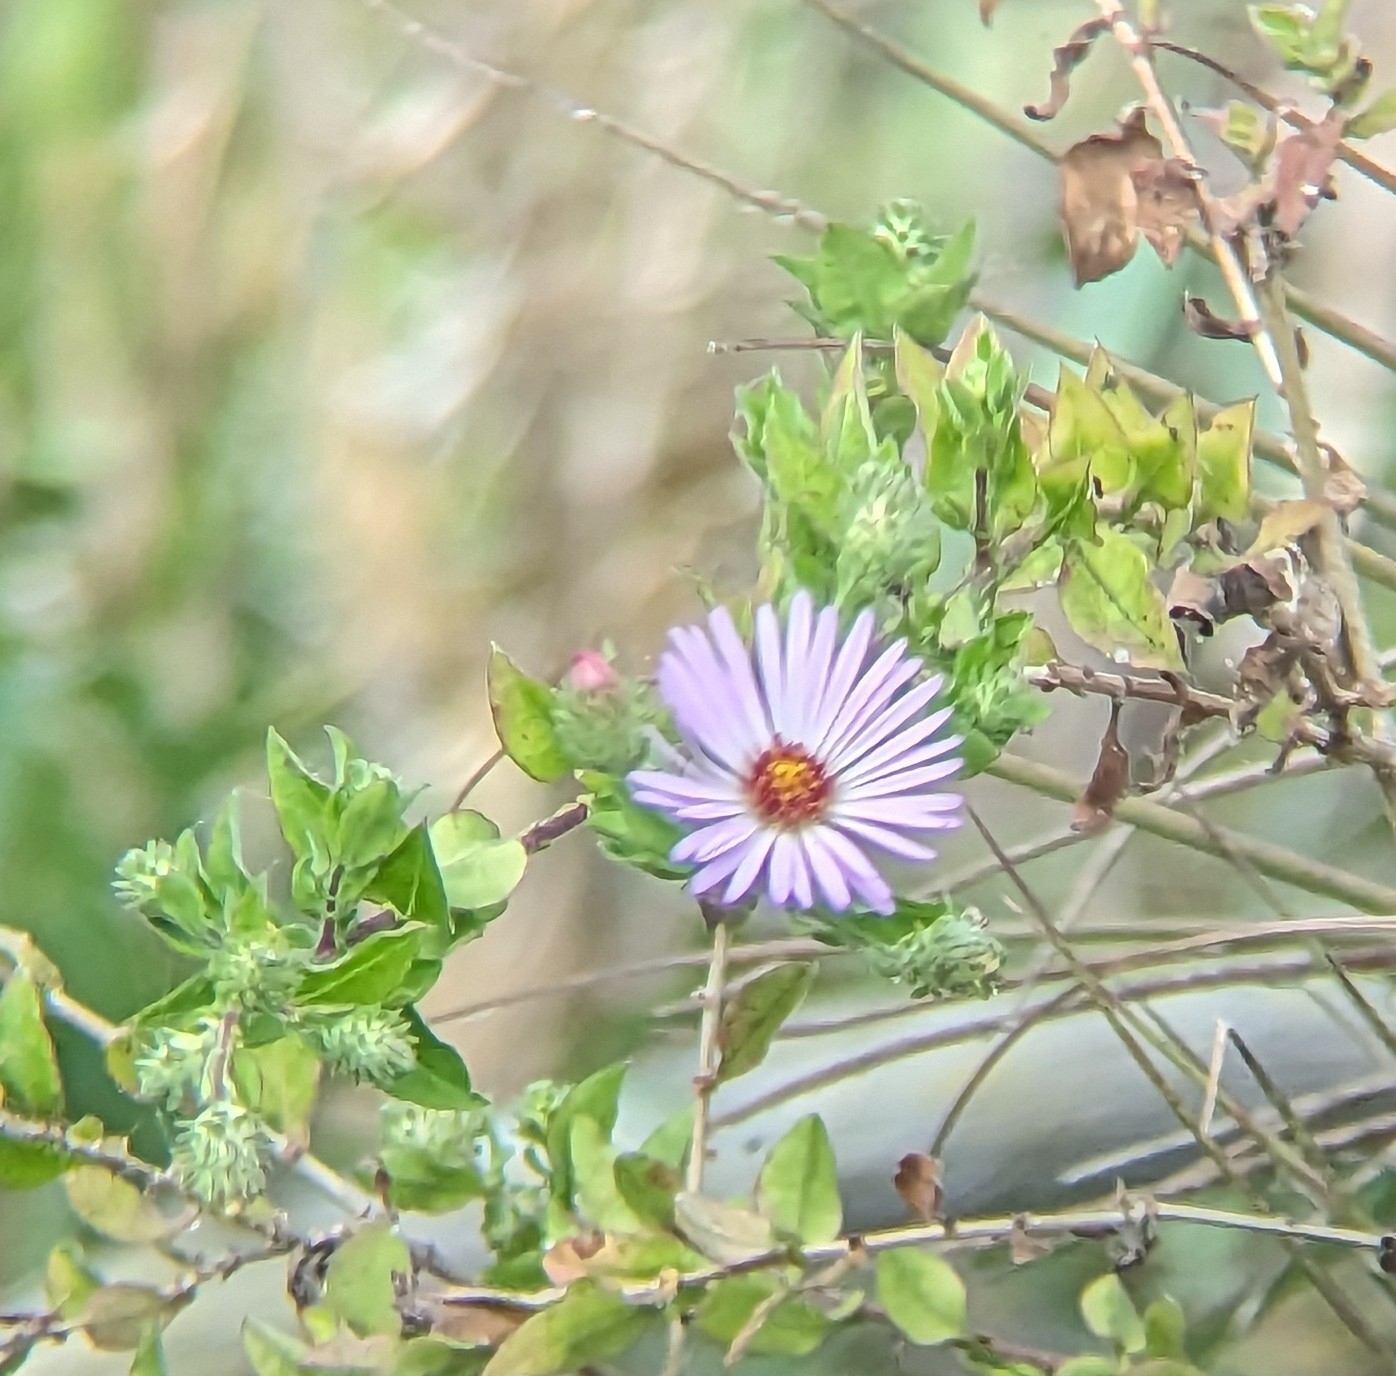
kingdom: Plantae
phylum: Tracheophyta
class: Magnoliopsida
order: Asterales
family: Asteraceae
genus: Ampelaster
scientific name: Ampelaster carolinianus
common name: Climbing aster
